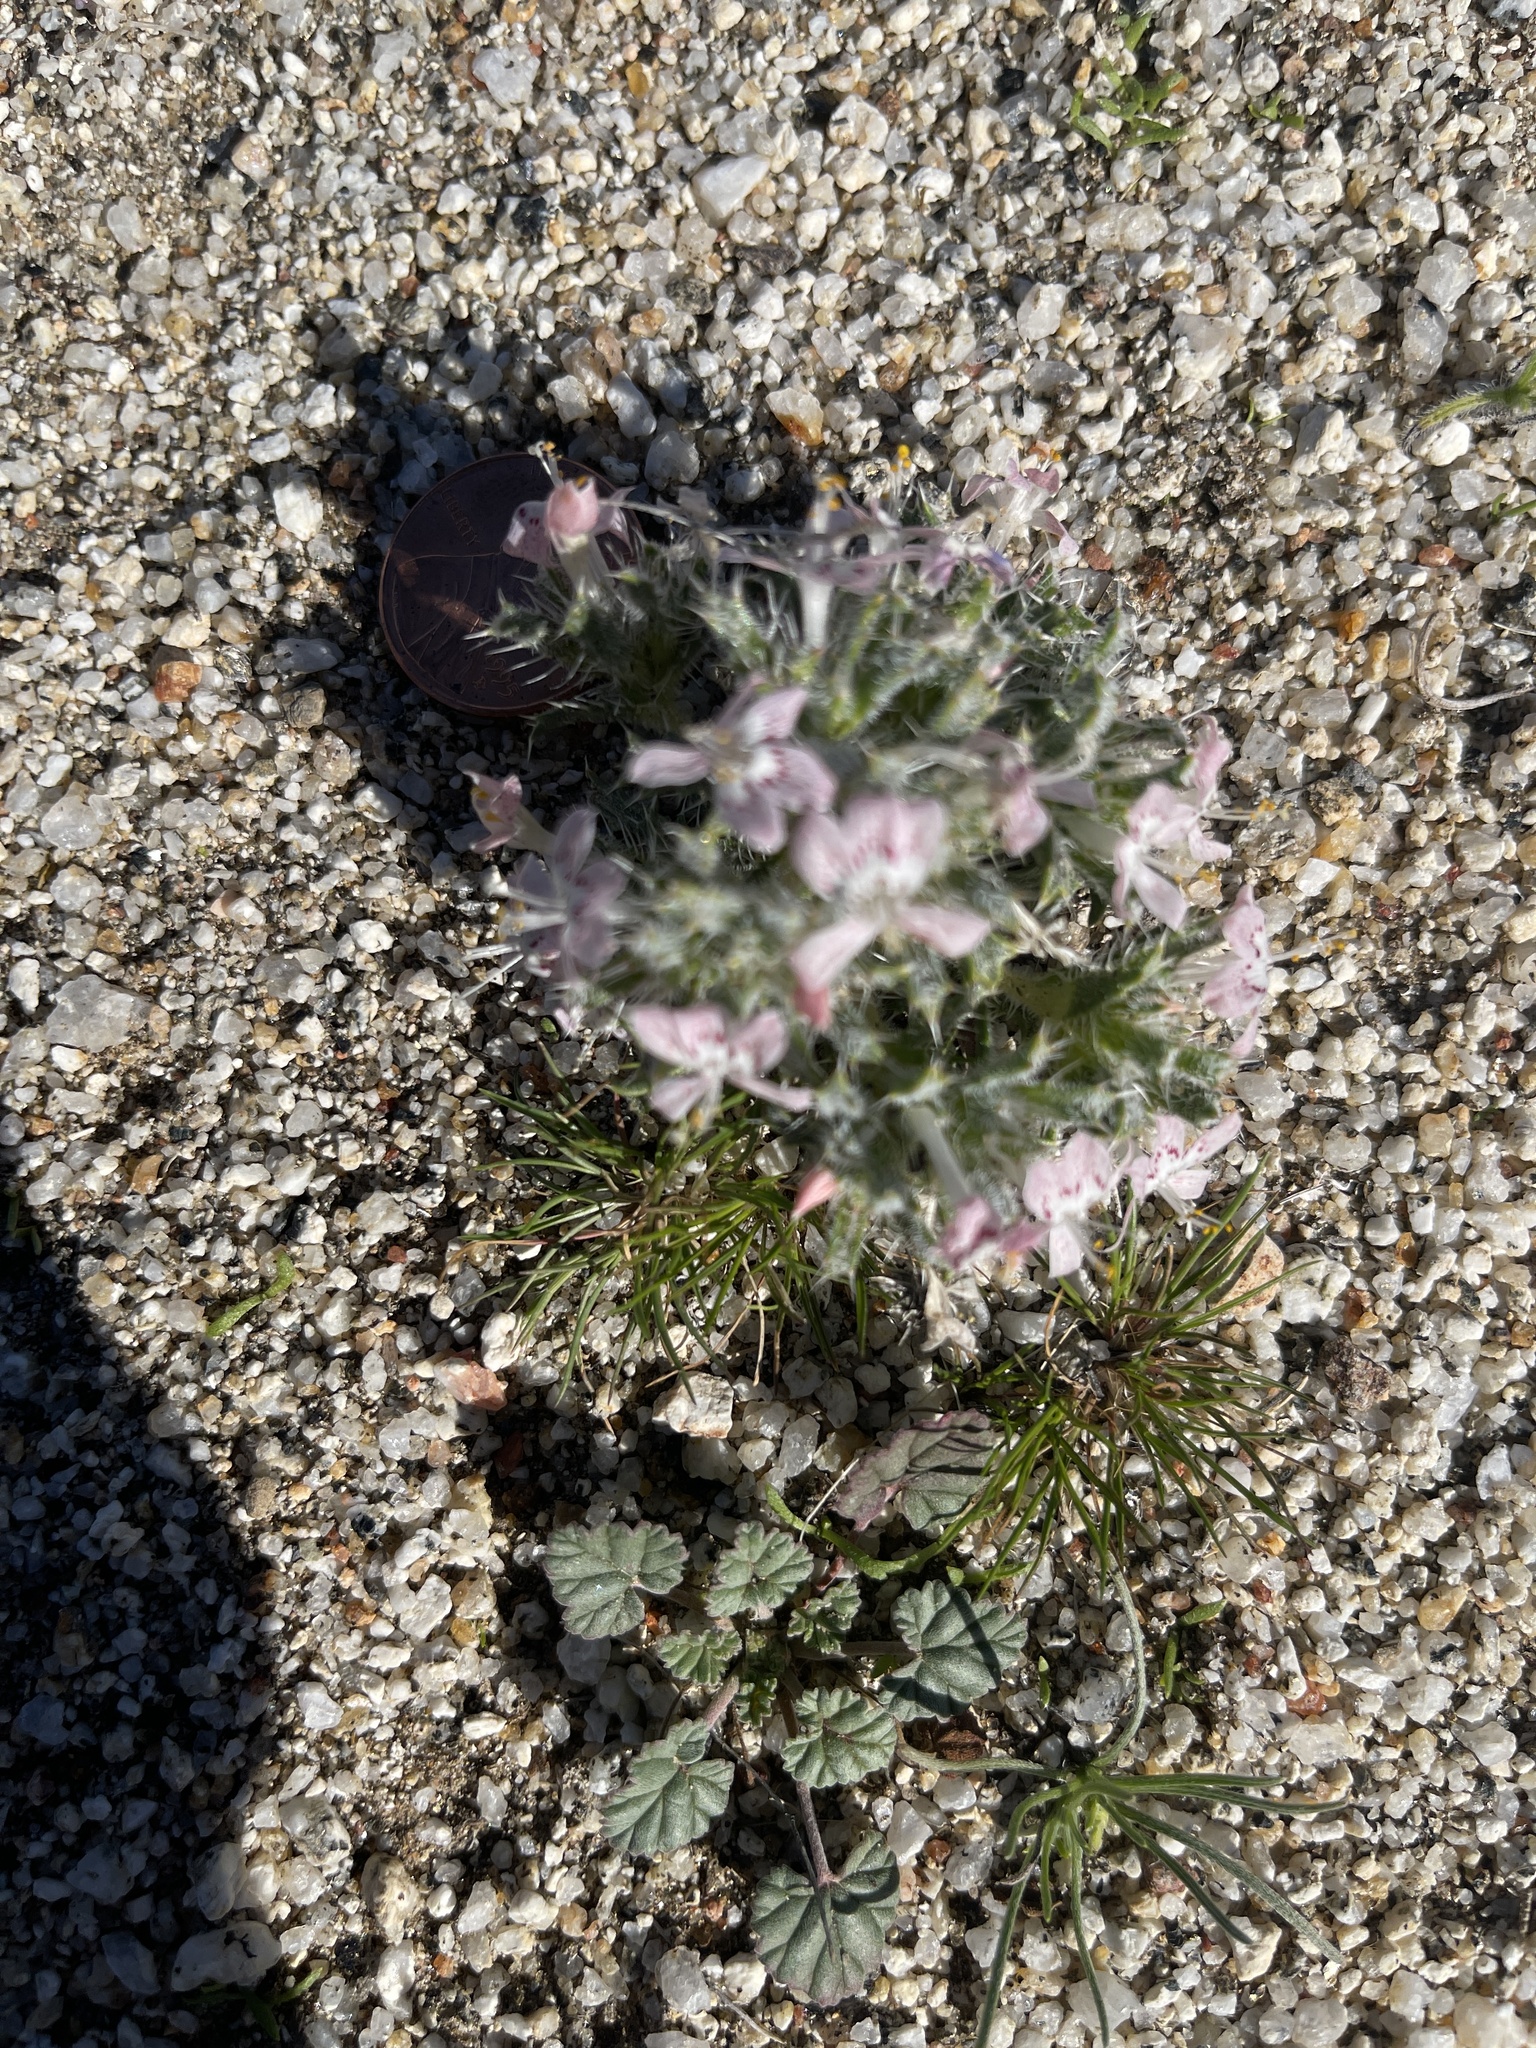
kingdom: Plantae
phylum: Tracheophyta
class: Magnoliopsida
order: Ericales
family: Polemoniaceae
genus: Loeseliastrum
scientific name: Loeseliastrum matthewsii
